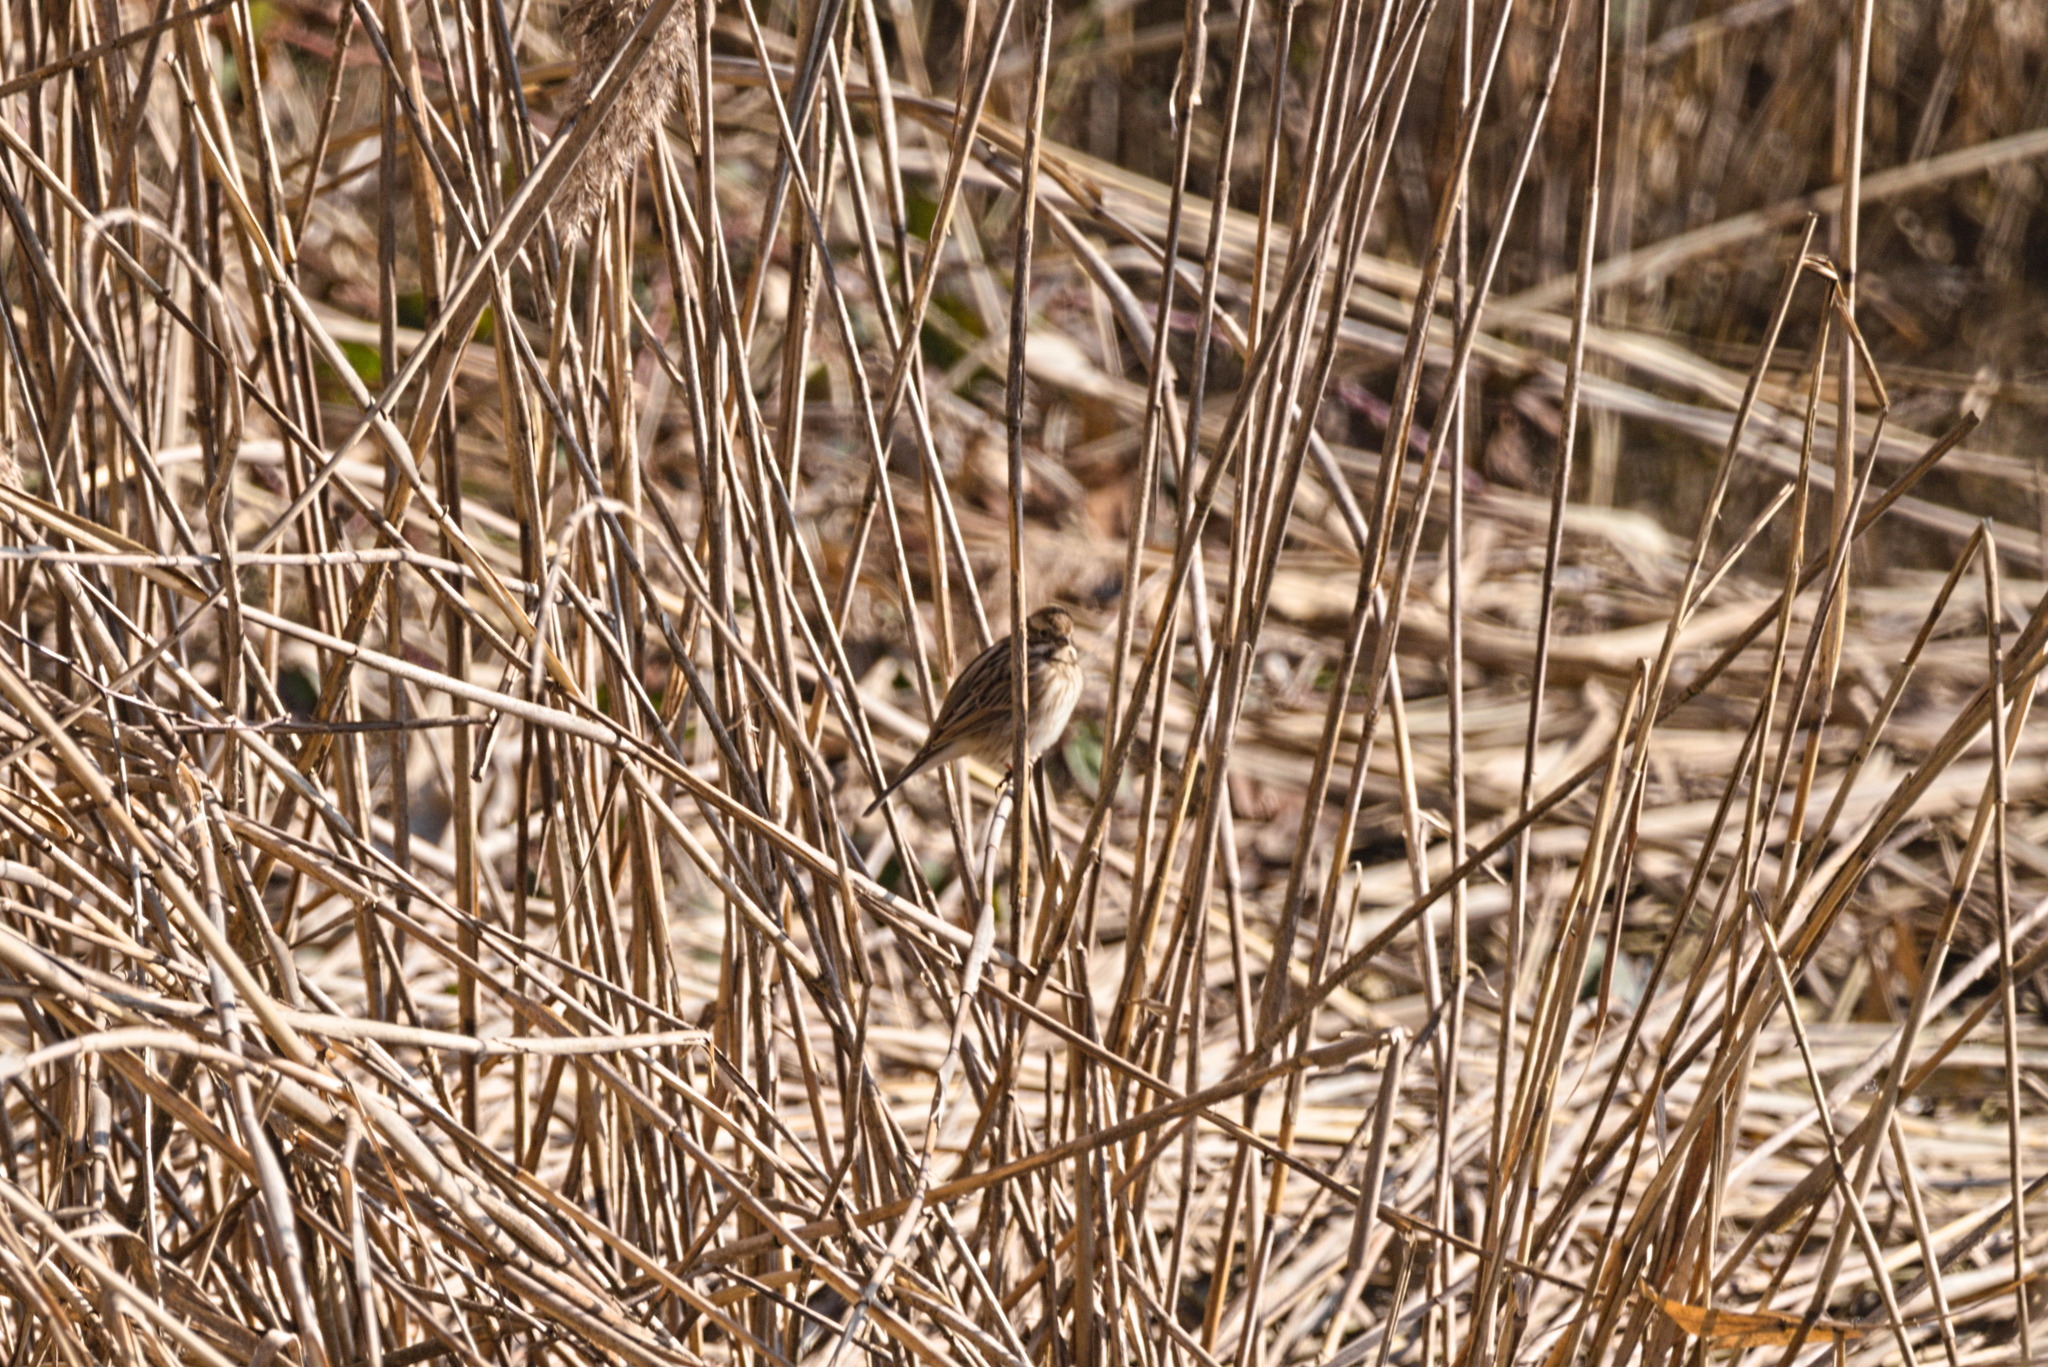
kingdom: Animalia
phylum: Chordata
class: Aves
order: Passeriformes
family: Emberizidae
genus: Emberiza
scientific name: Emberiza schoeniclus
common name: Reed bunting
